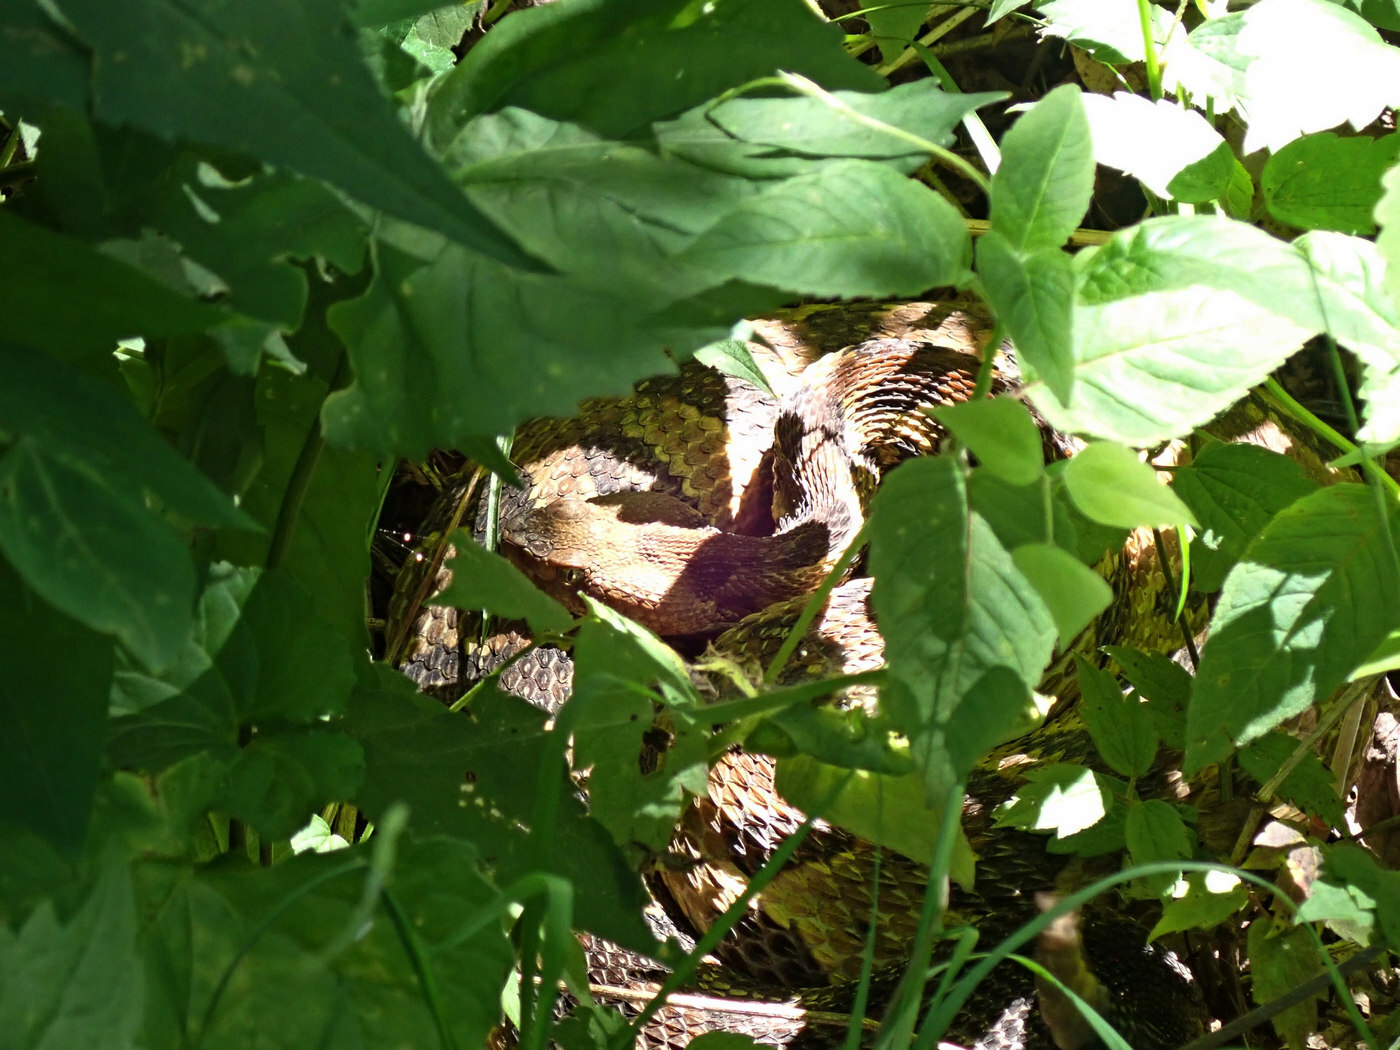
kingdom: Animalia
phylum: Chordata
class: Squamata
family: Viperidae
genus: Crotalus
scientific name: Crotalus horridus
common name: Timber rattlesnake
